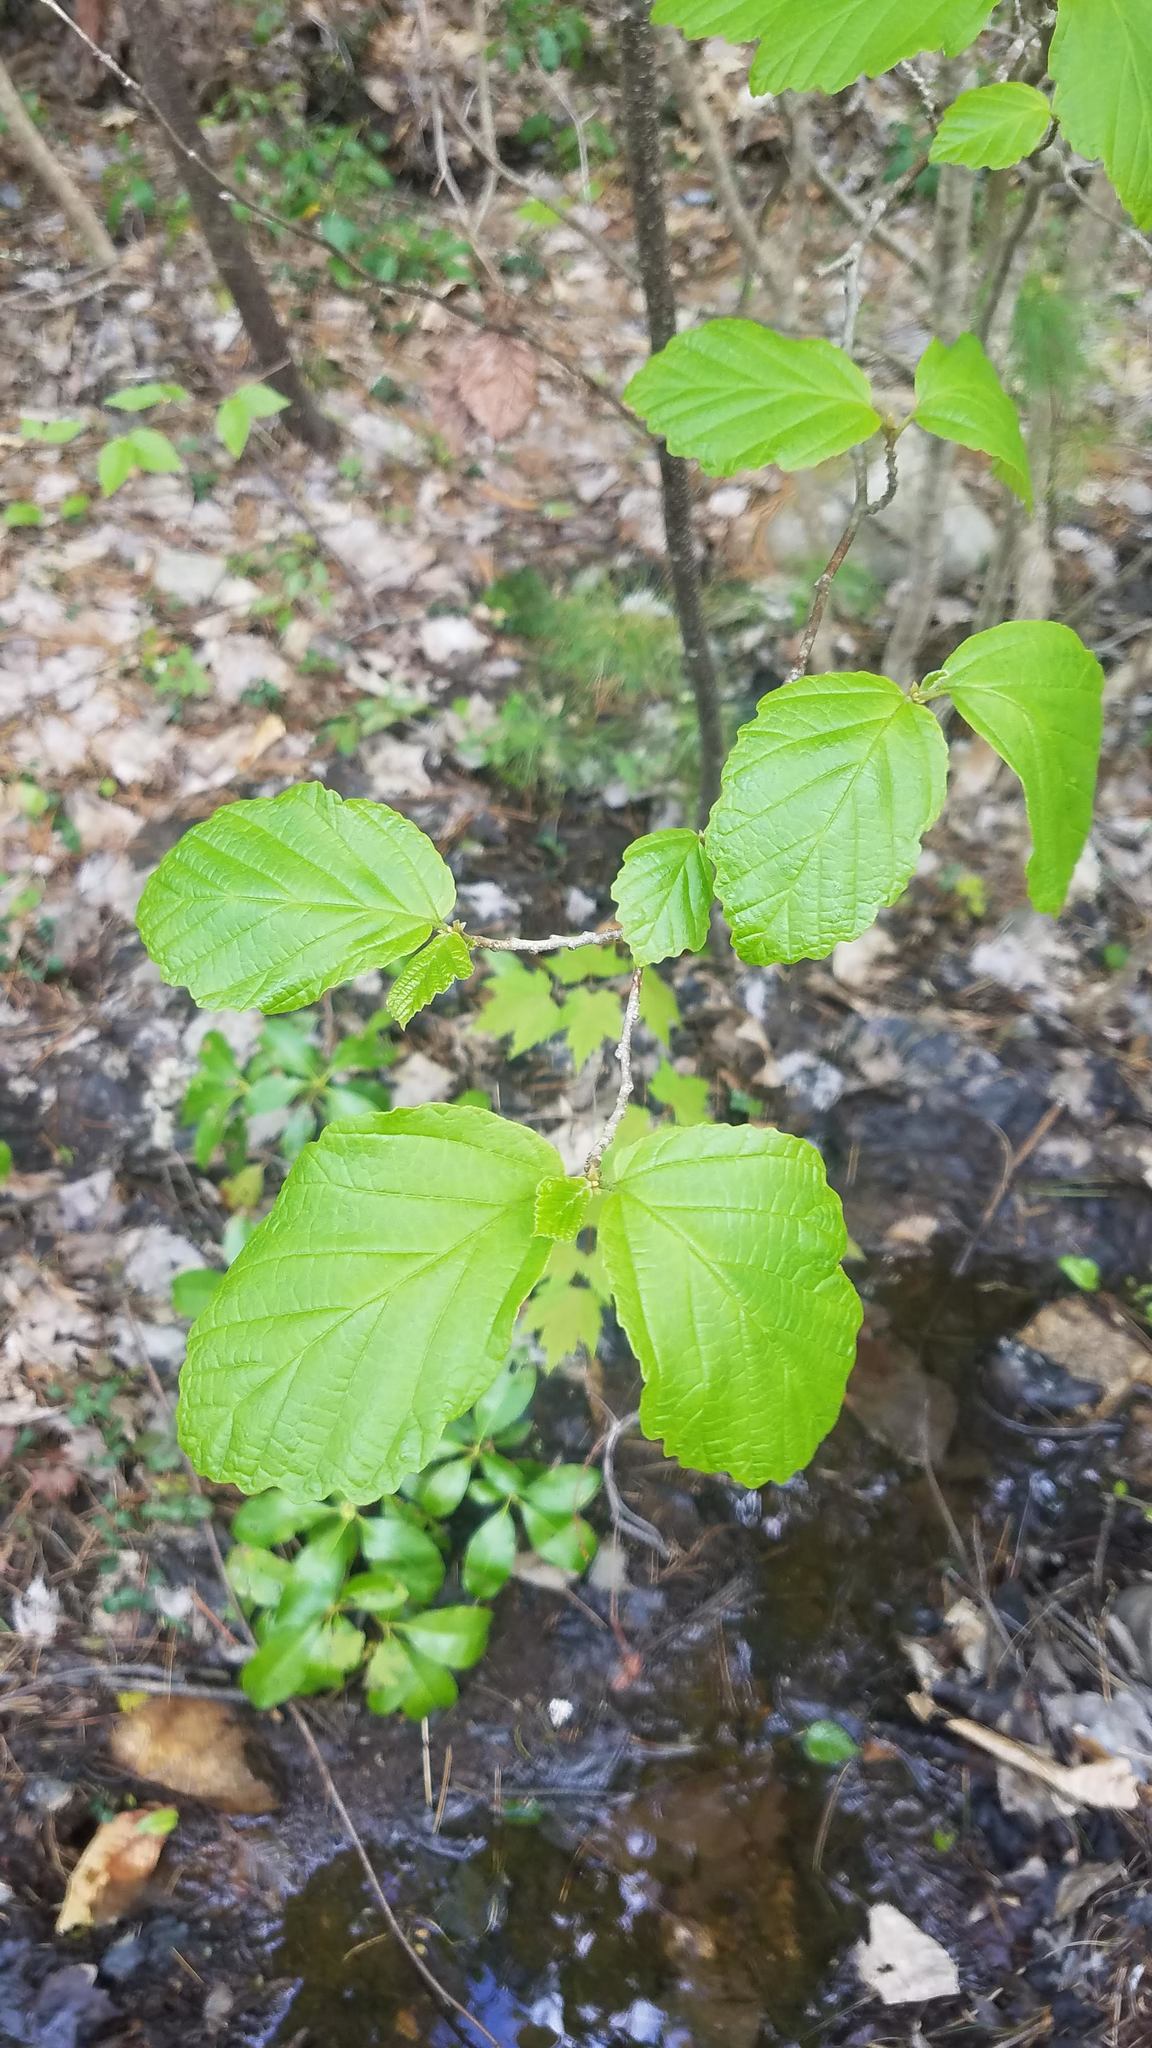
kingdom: Plantae
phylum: Tracheophyta
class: Magnoliopsida
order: Saxifragales
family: Hamamelidaceae
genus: Hamamelis
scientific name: Hamamelis virginiana
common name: Witch-hazel
